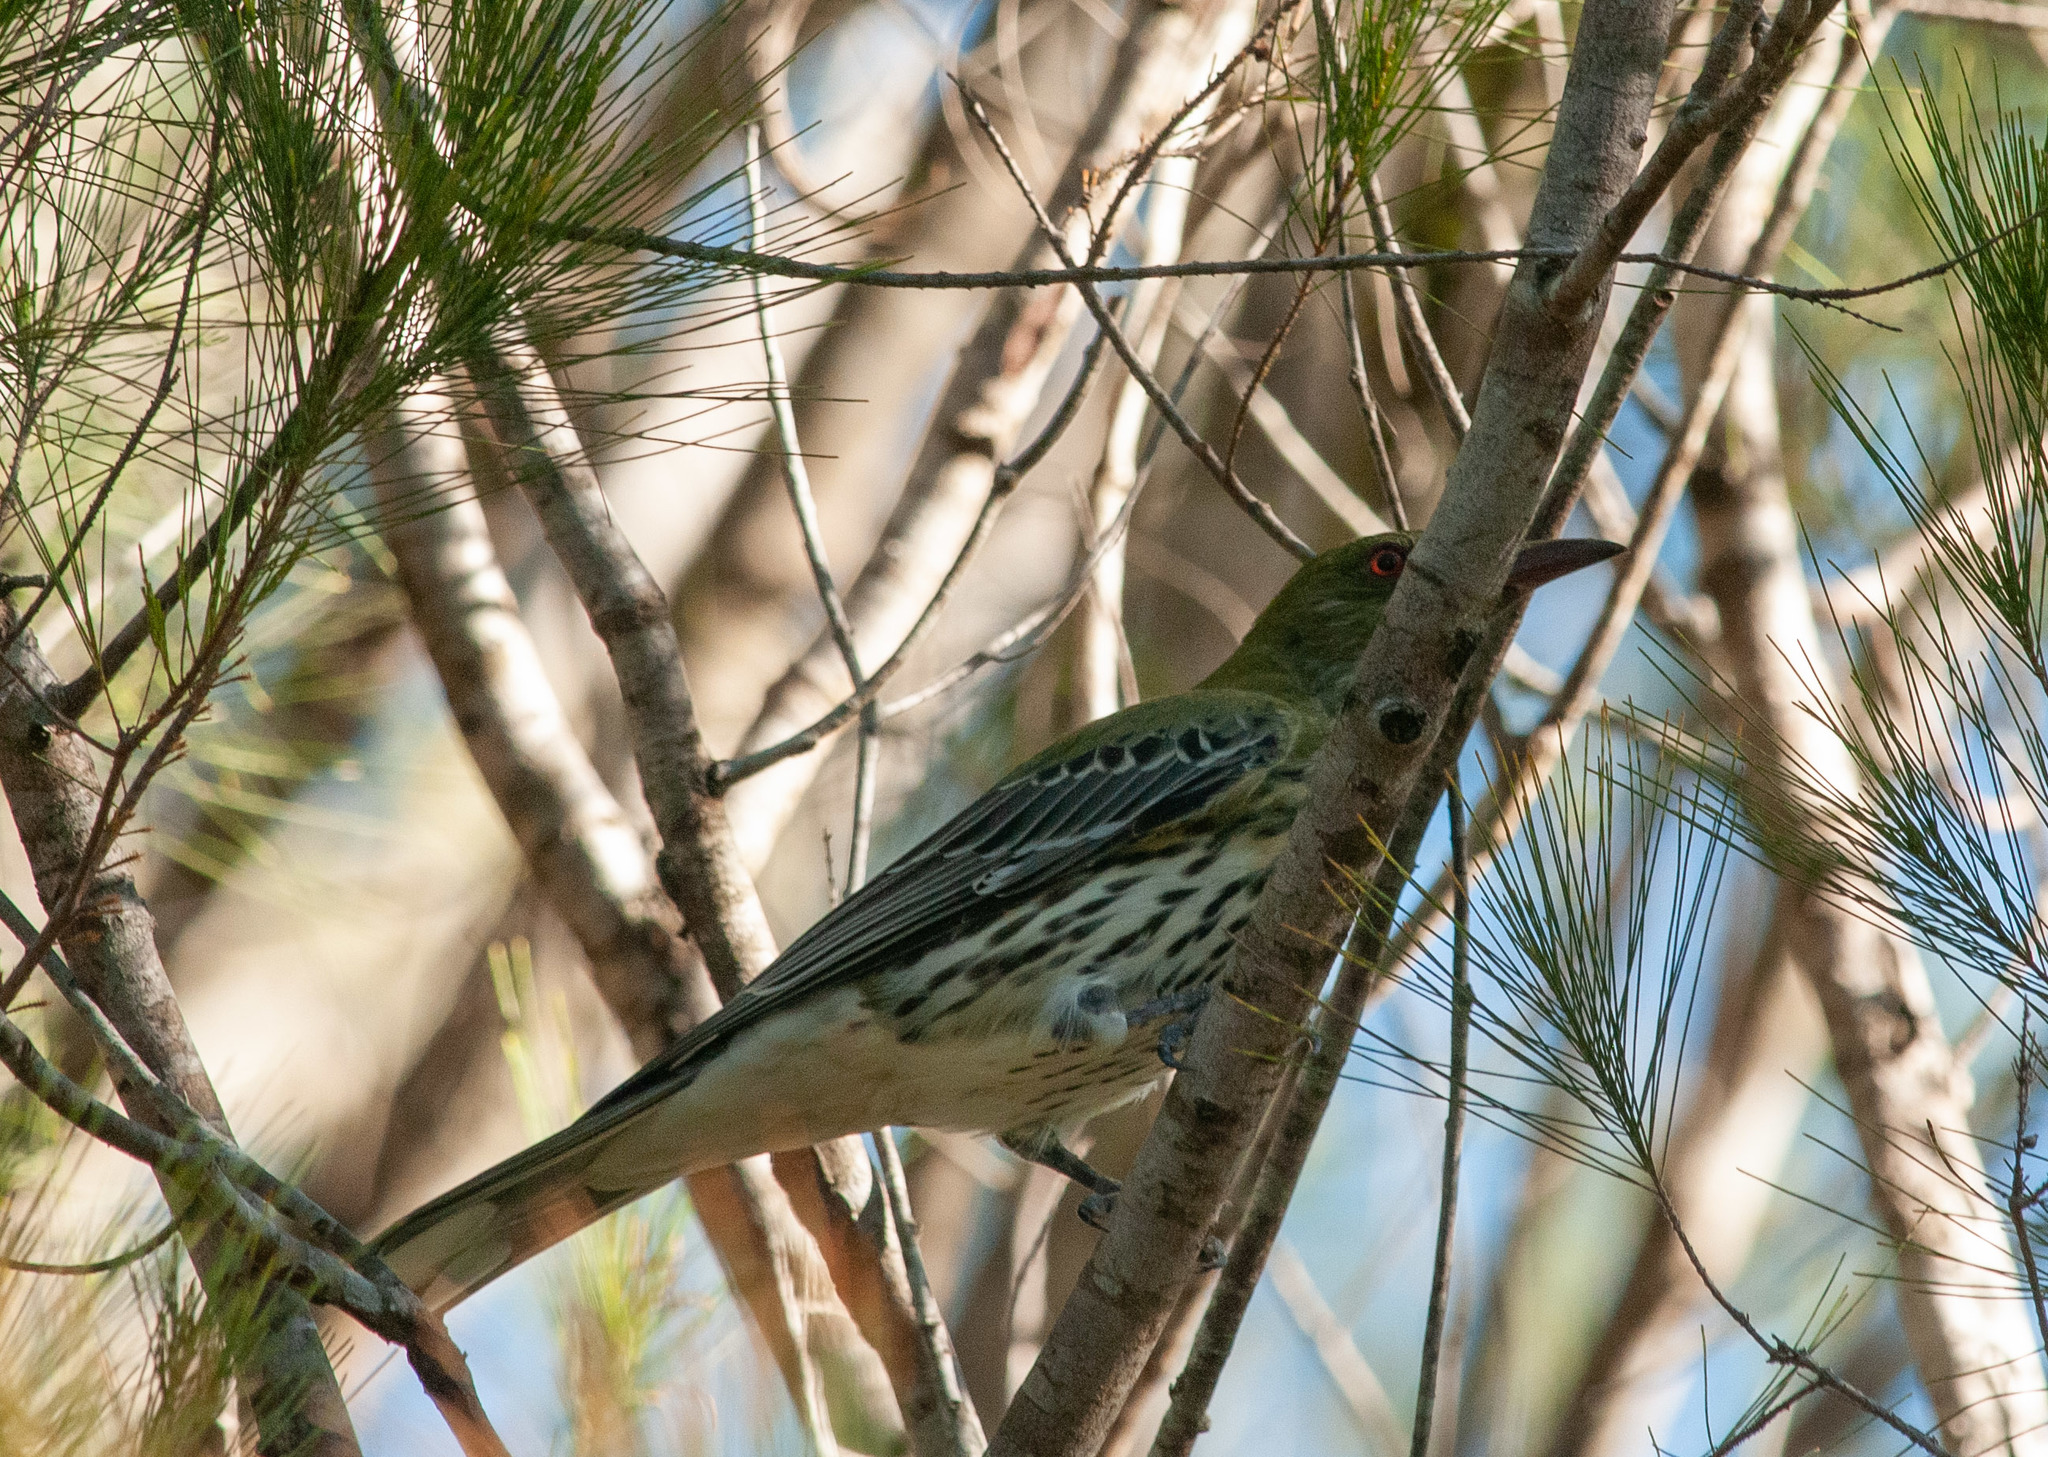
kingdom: Animalia
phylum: Chordata
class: Aves
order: Passeriformes
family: Oriolidae
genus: Oriolus
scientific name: Oriolus sagittatus
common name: Olive-backed oriole
